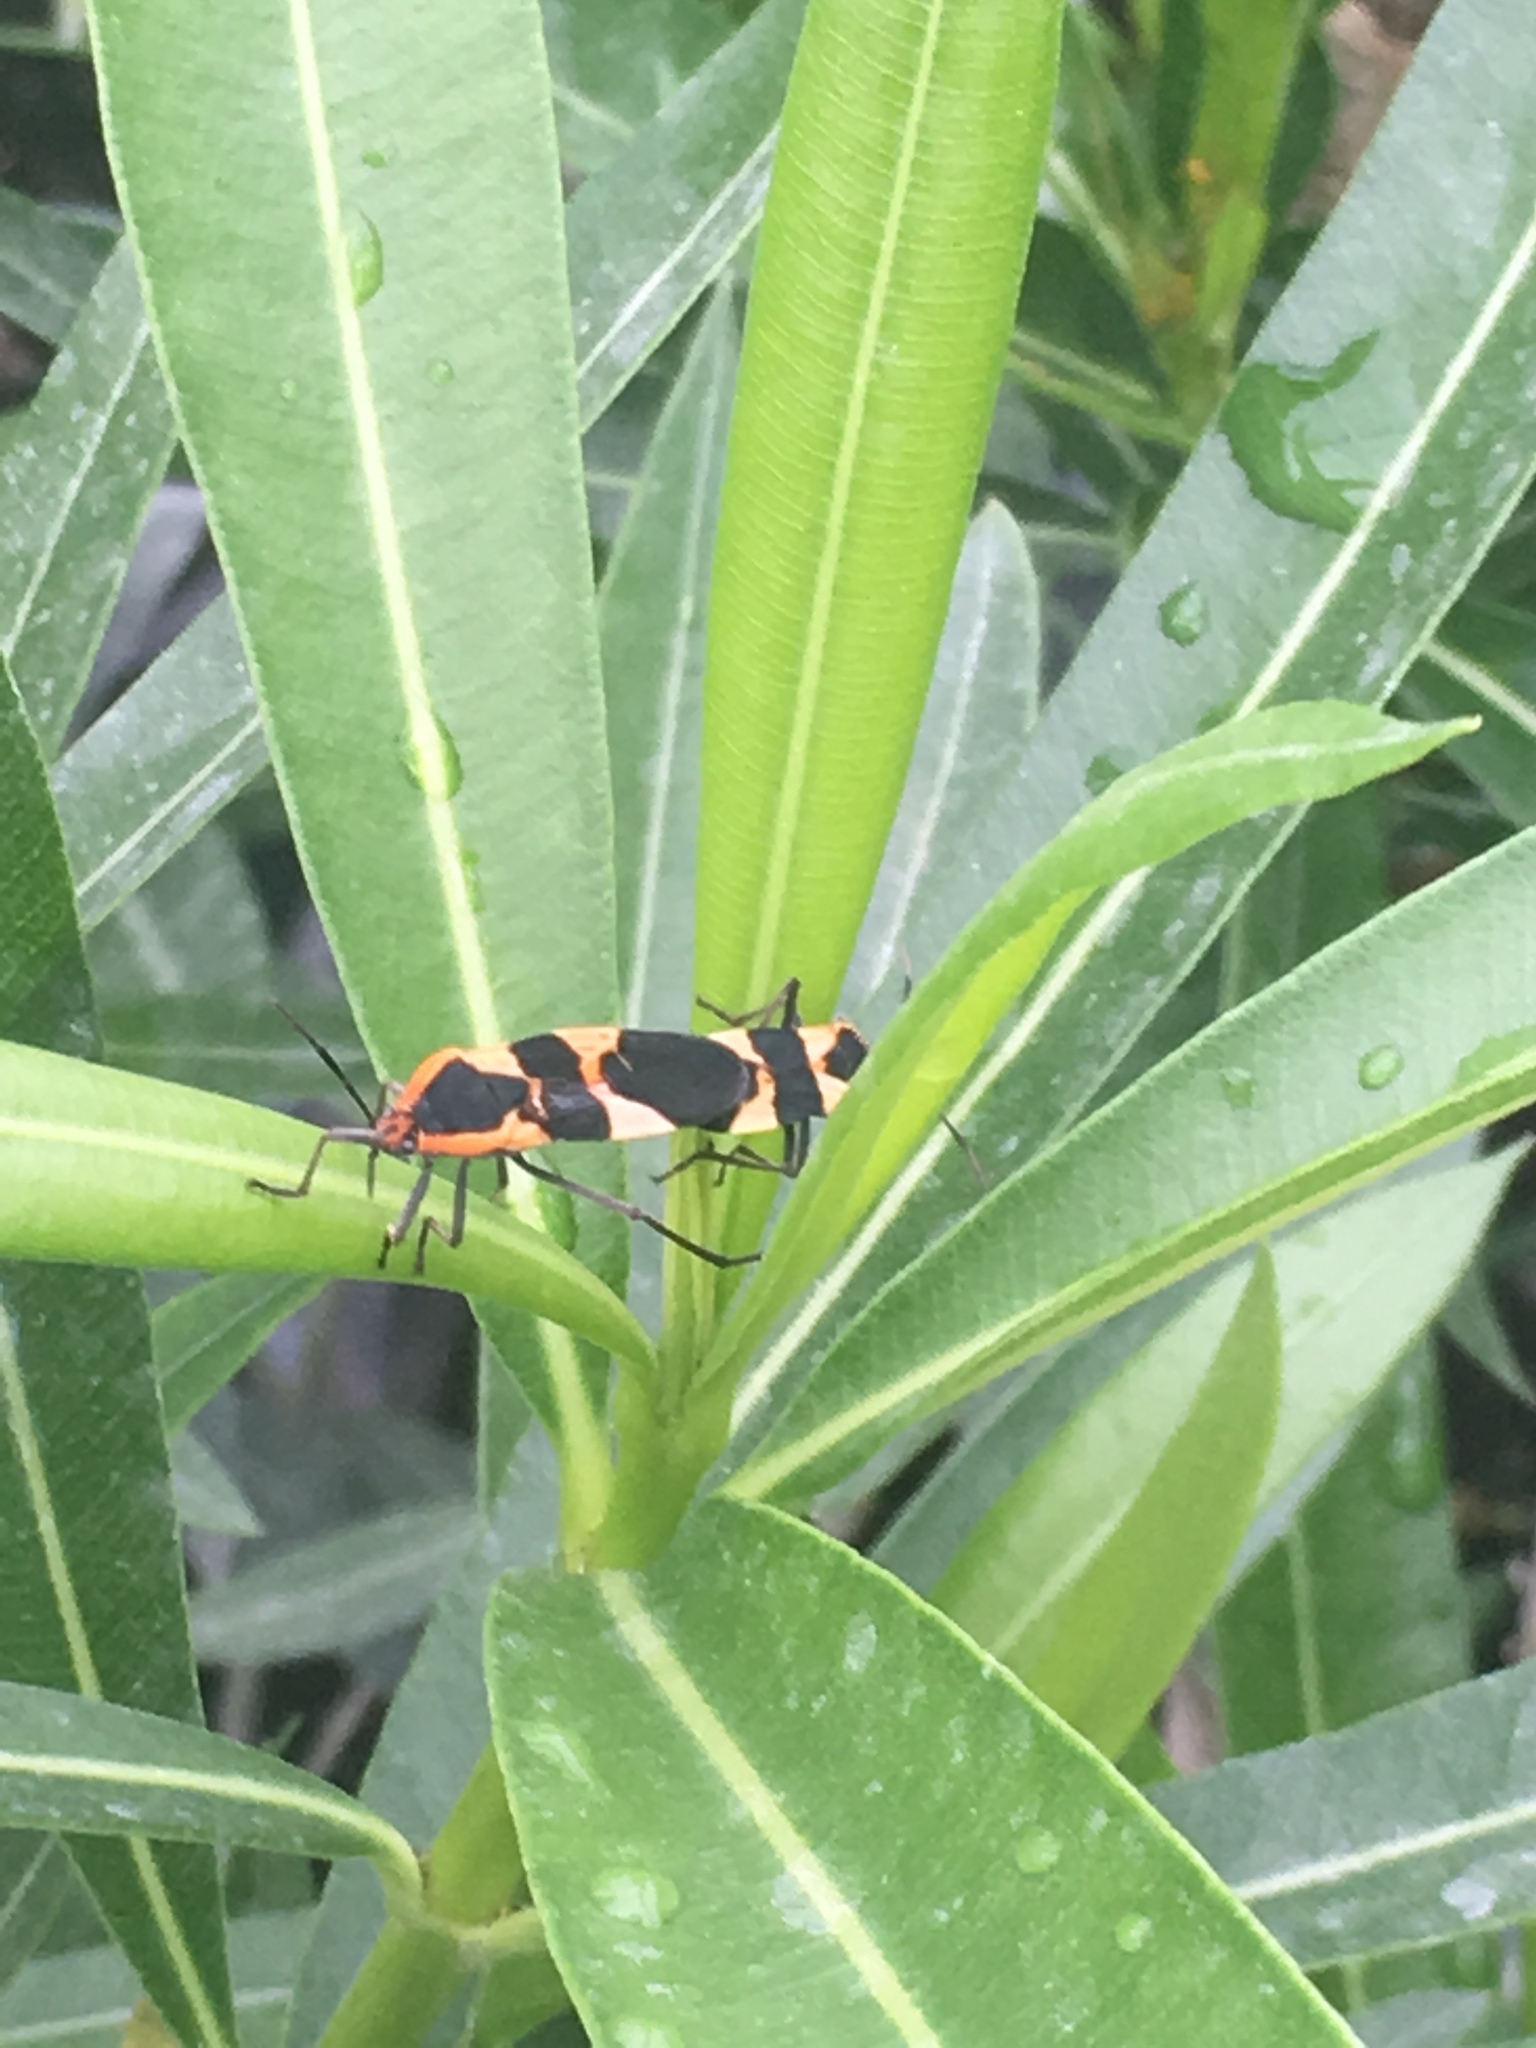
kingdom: Animalia
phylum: Arthropoda
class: Insecta
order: Hemiptera
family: Lygaeidae
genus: Oncopeltus
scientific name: Oncopeltus fasciatus
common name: Large milkweed bug
